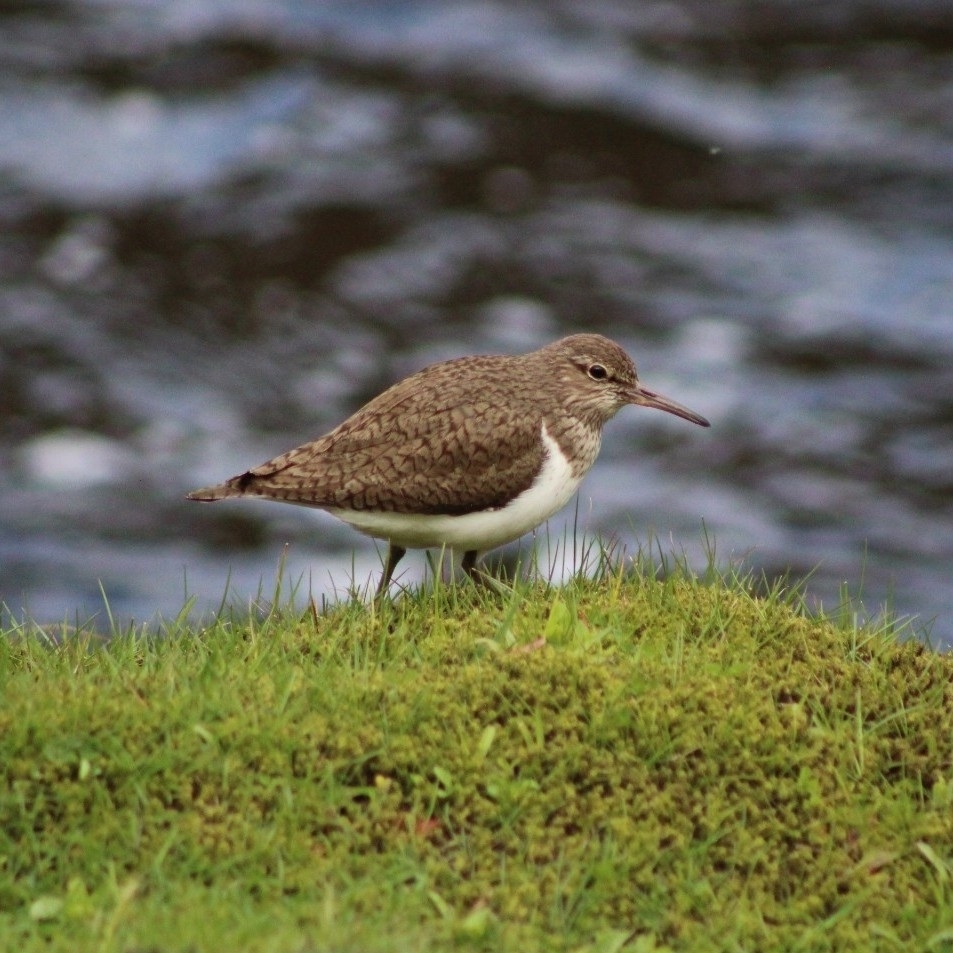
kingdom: Animalia
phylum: Chordata
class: Aves
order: Charadriiformes
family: Scolopacidae
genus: Actitis
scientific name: Actitis hypoleucos
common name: Common sandpiper
